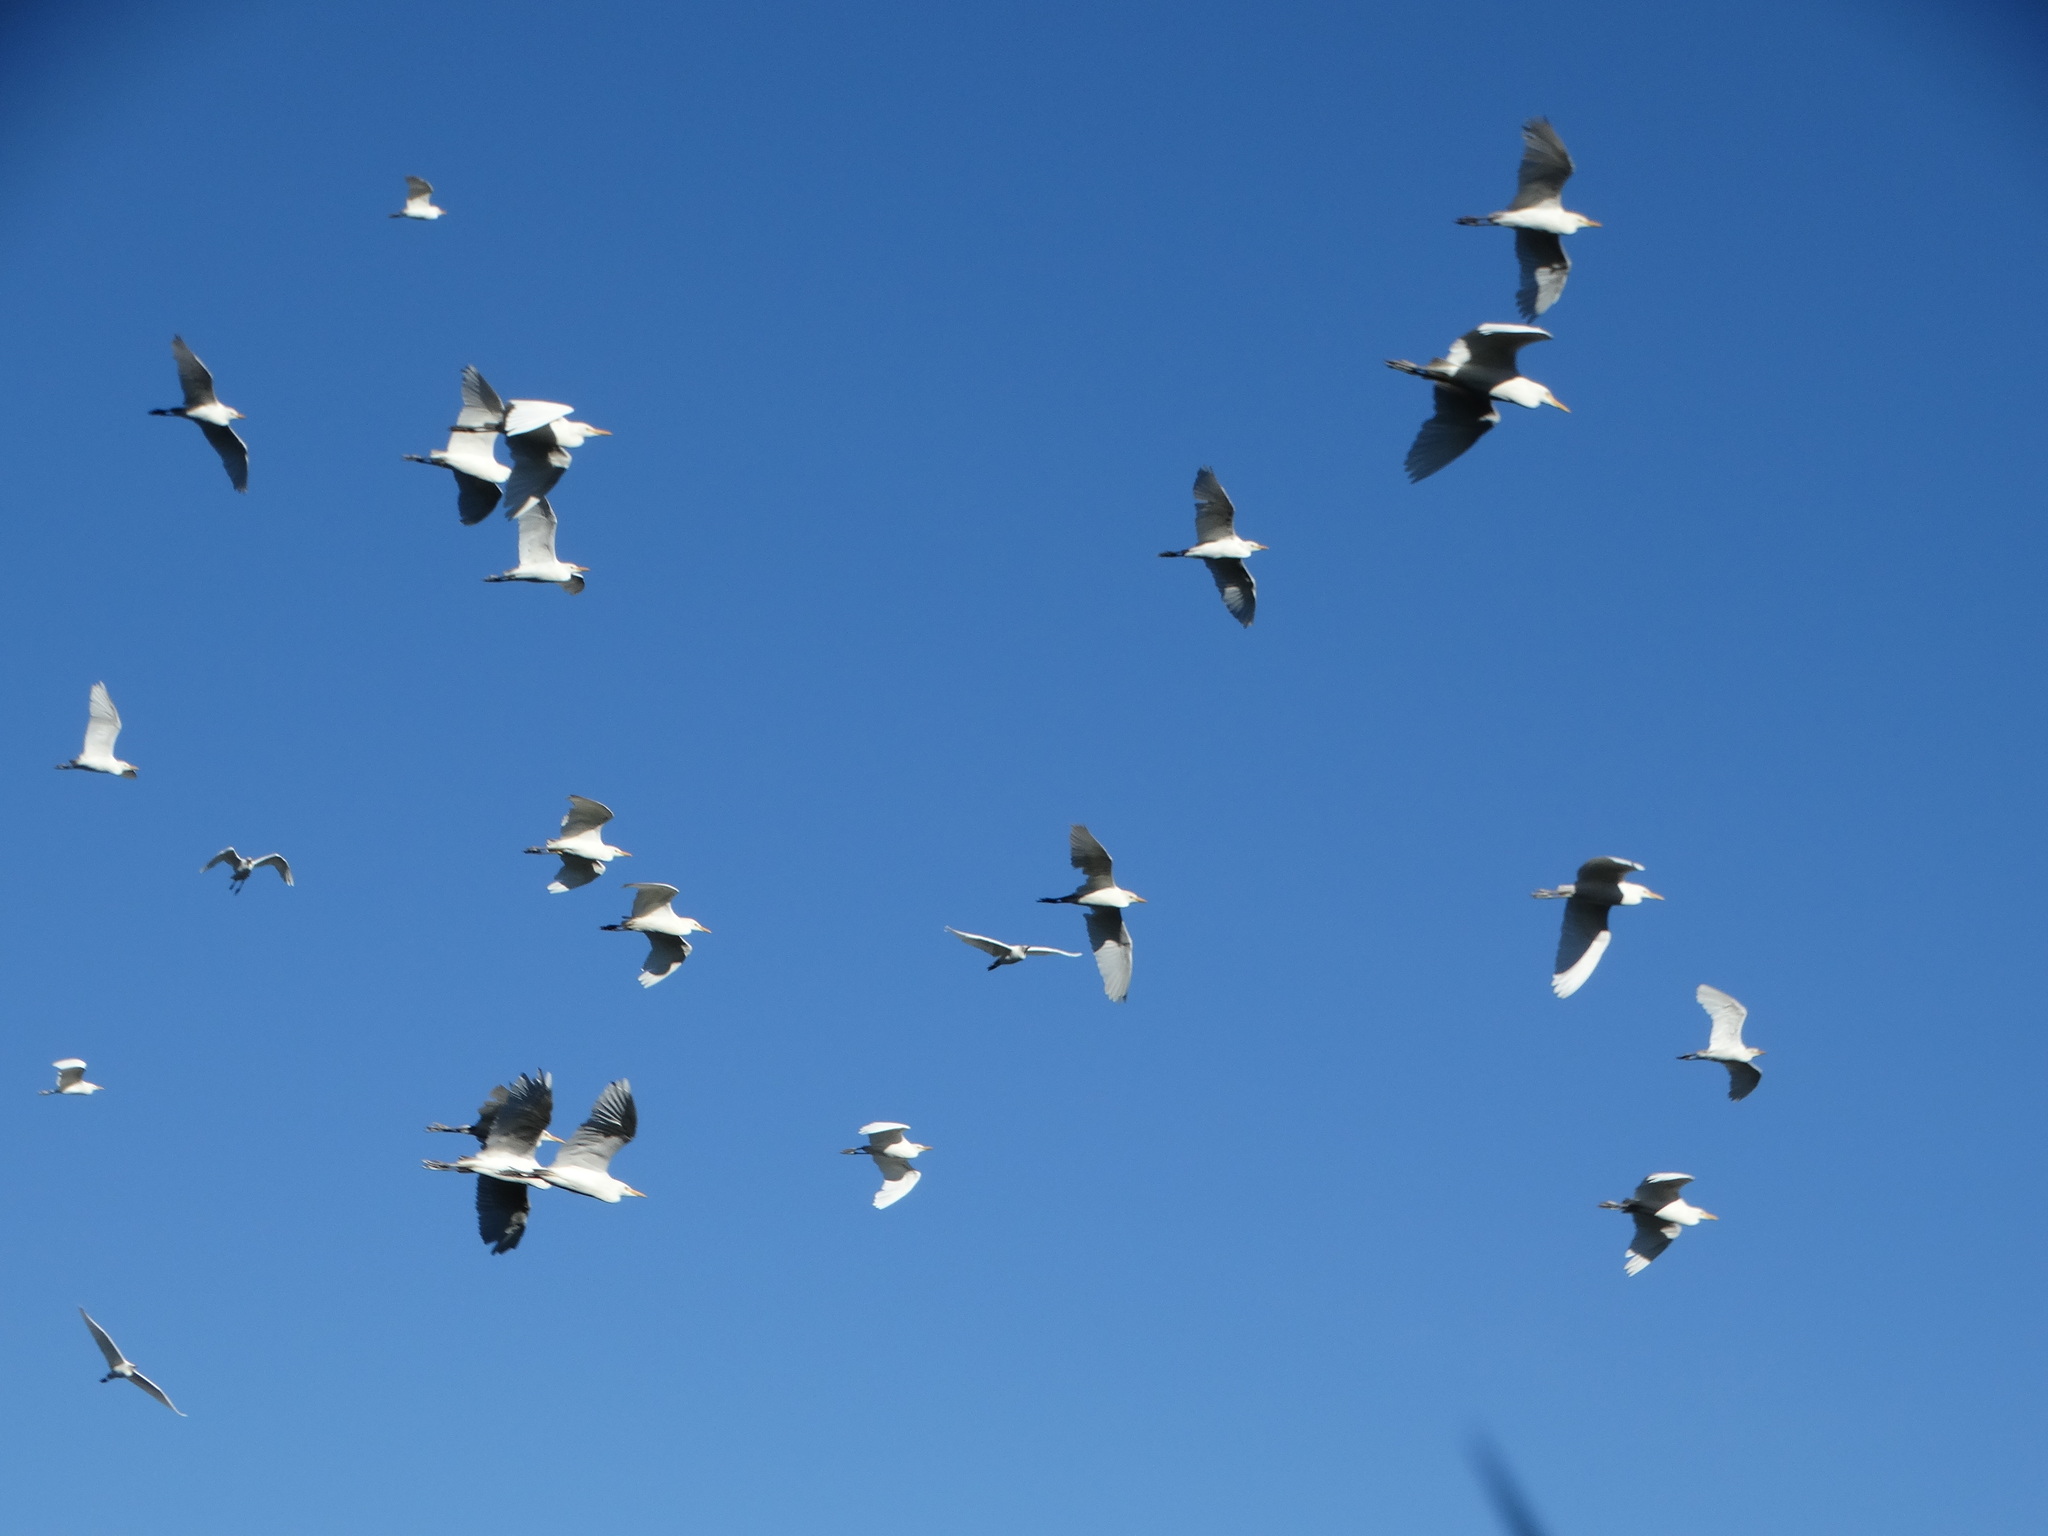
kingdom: Animalia
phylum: Chordata
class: Aves
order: Pelecaniformes
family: Ardeidae
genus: Bubulcus
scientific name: Bubulcus ibis
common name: Cattle egret
